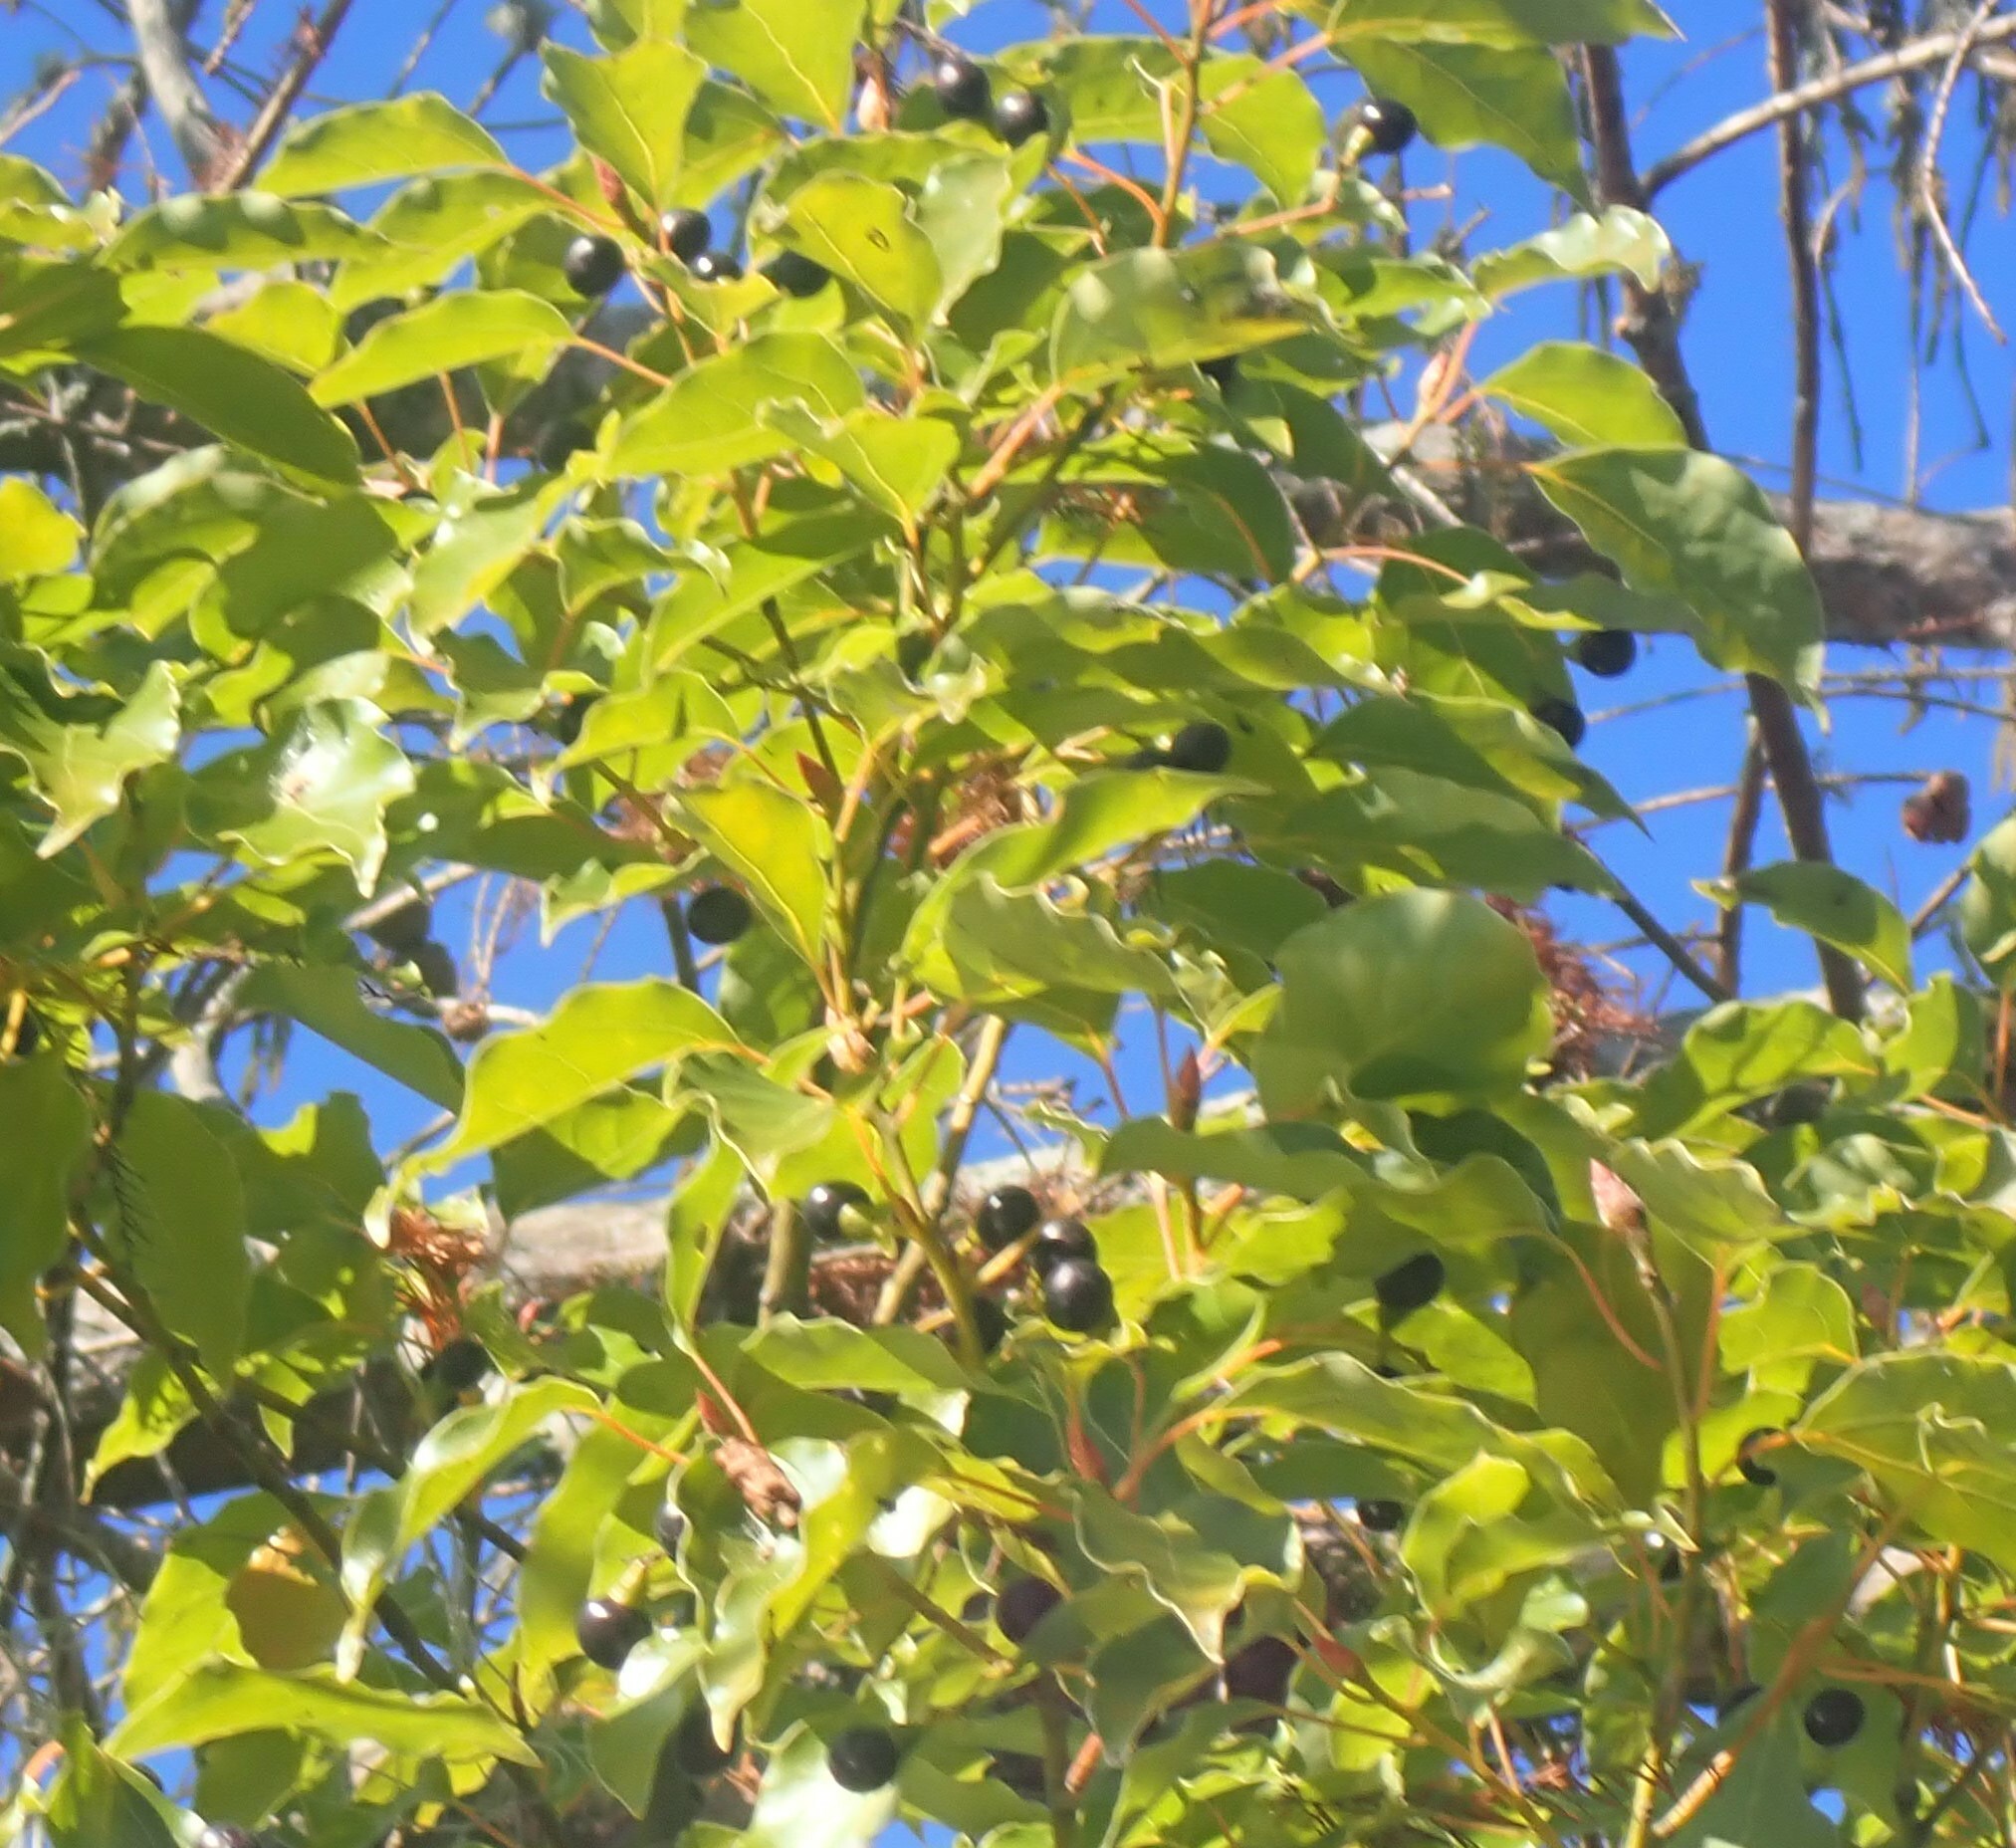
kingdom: Plantae
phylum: Tracheophyta
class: Magnoliopsida
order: Laurales
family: Lauraceae
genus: Cinnamomum
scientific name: Cinnamomum camphora
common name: Camphortree
